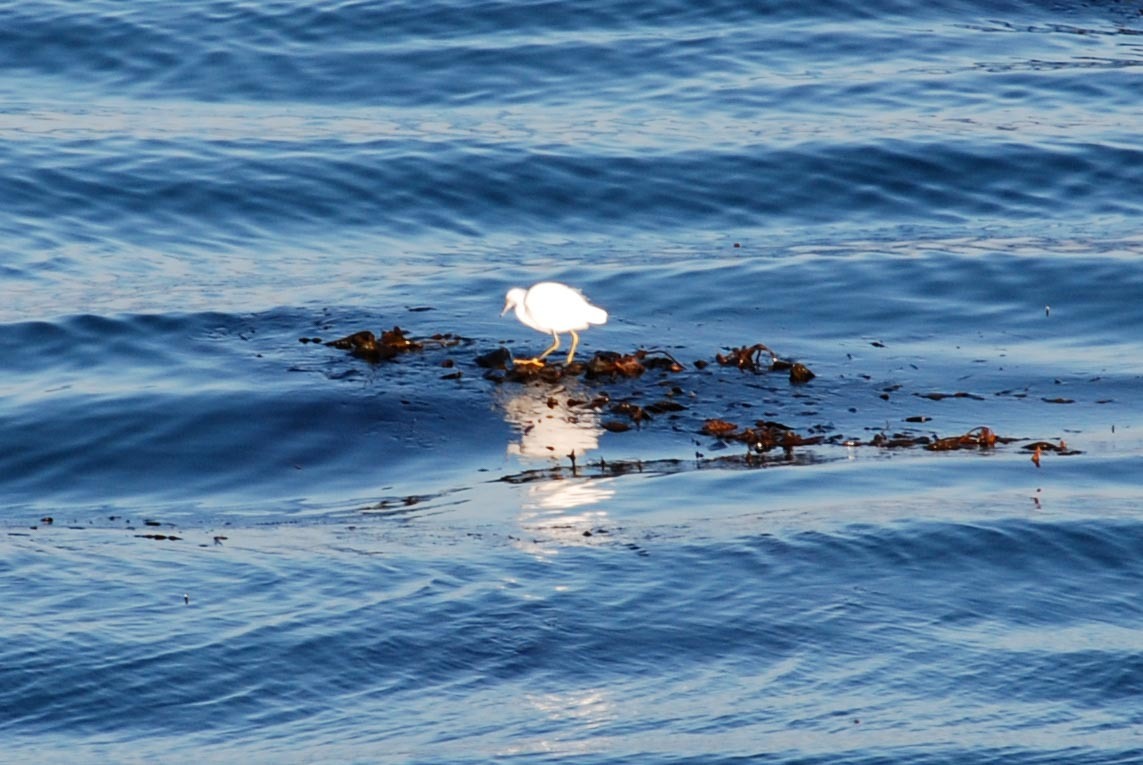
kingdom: Animalia
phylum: Chordata
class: Aves
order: Pelecaniformes
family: Ardeidae
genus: Egretta
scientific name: Egretta thula
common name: Snowy egret
